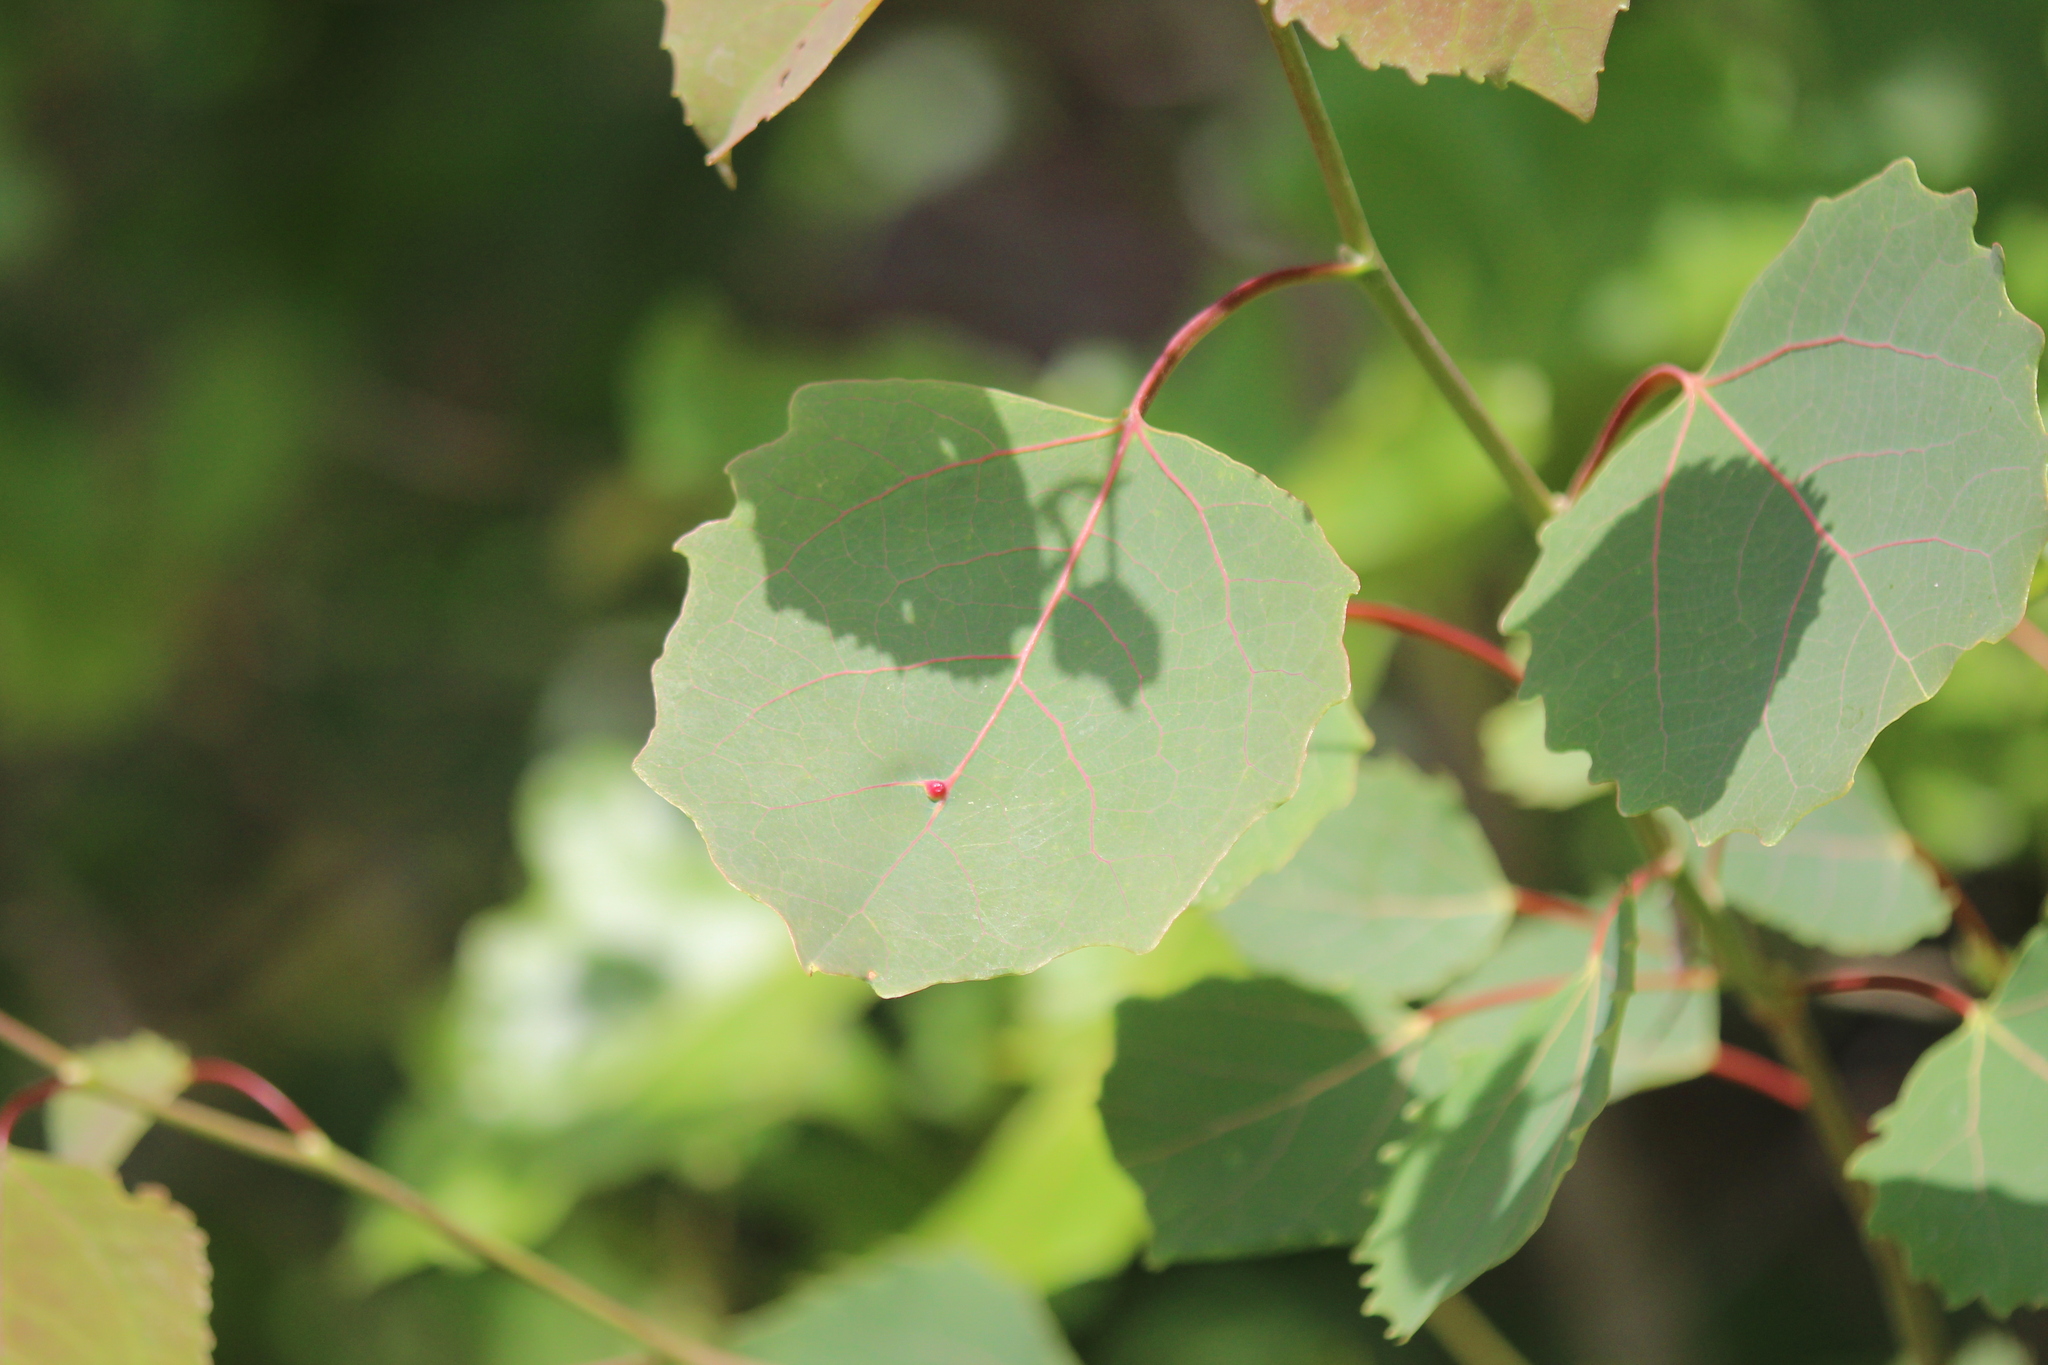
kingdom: Plantae
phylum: Tracheophyta
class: Magnoliopsida
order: Malpighiales
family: Salicaceae
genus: Populus
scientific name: Populus grandidentata
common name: Bigtooth aspen
